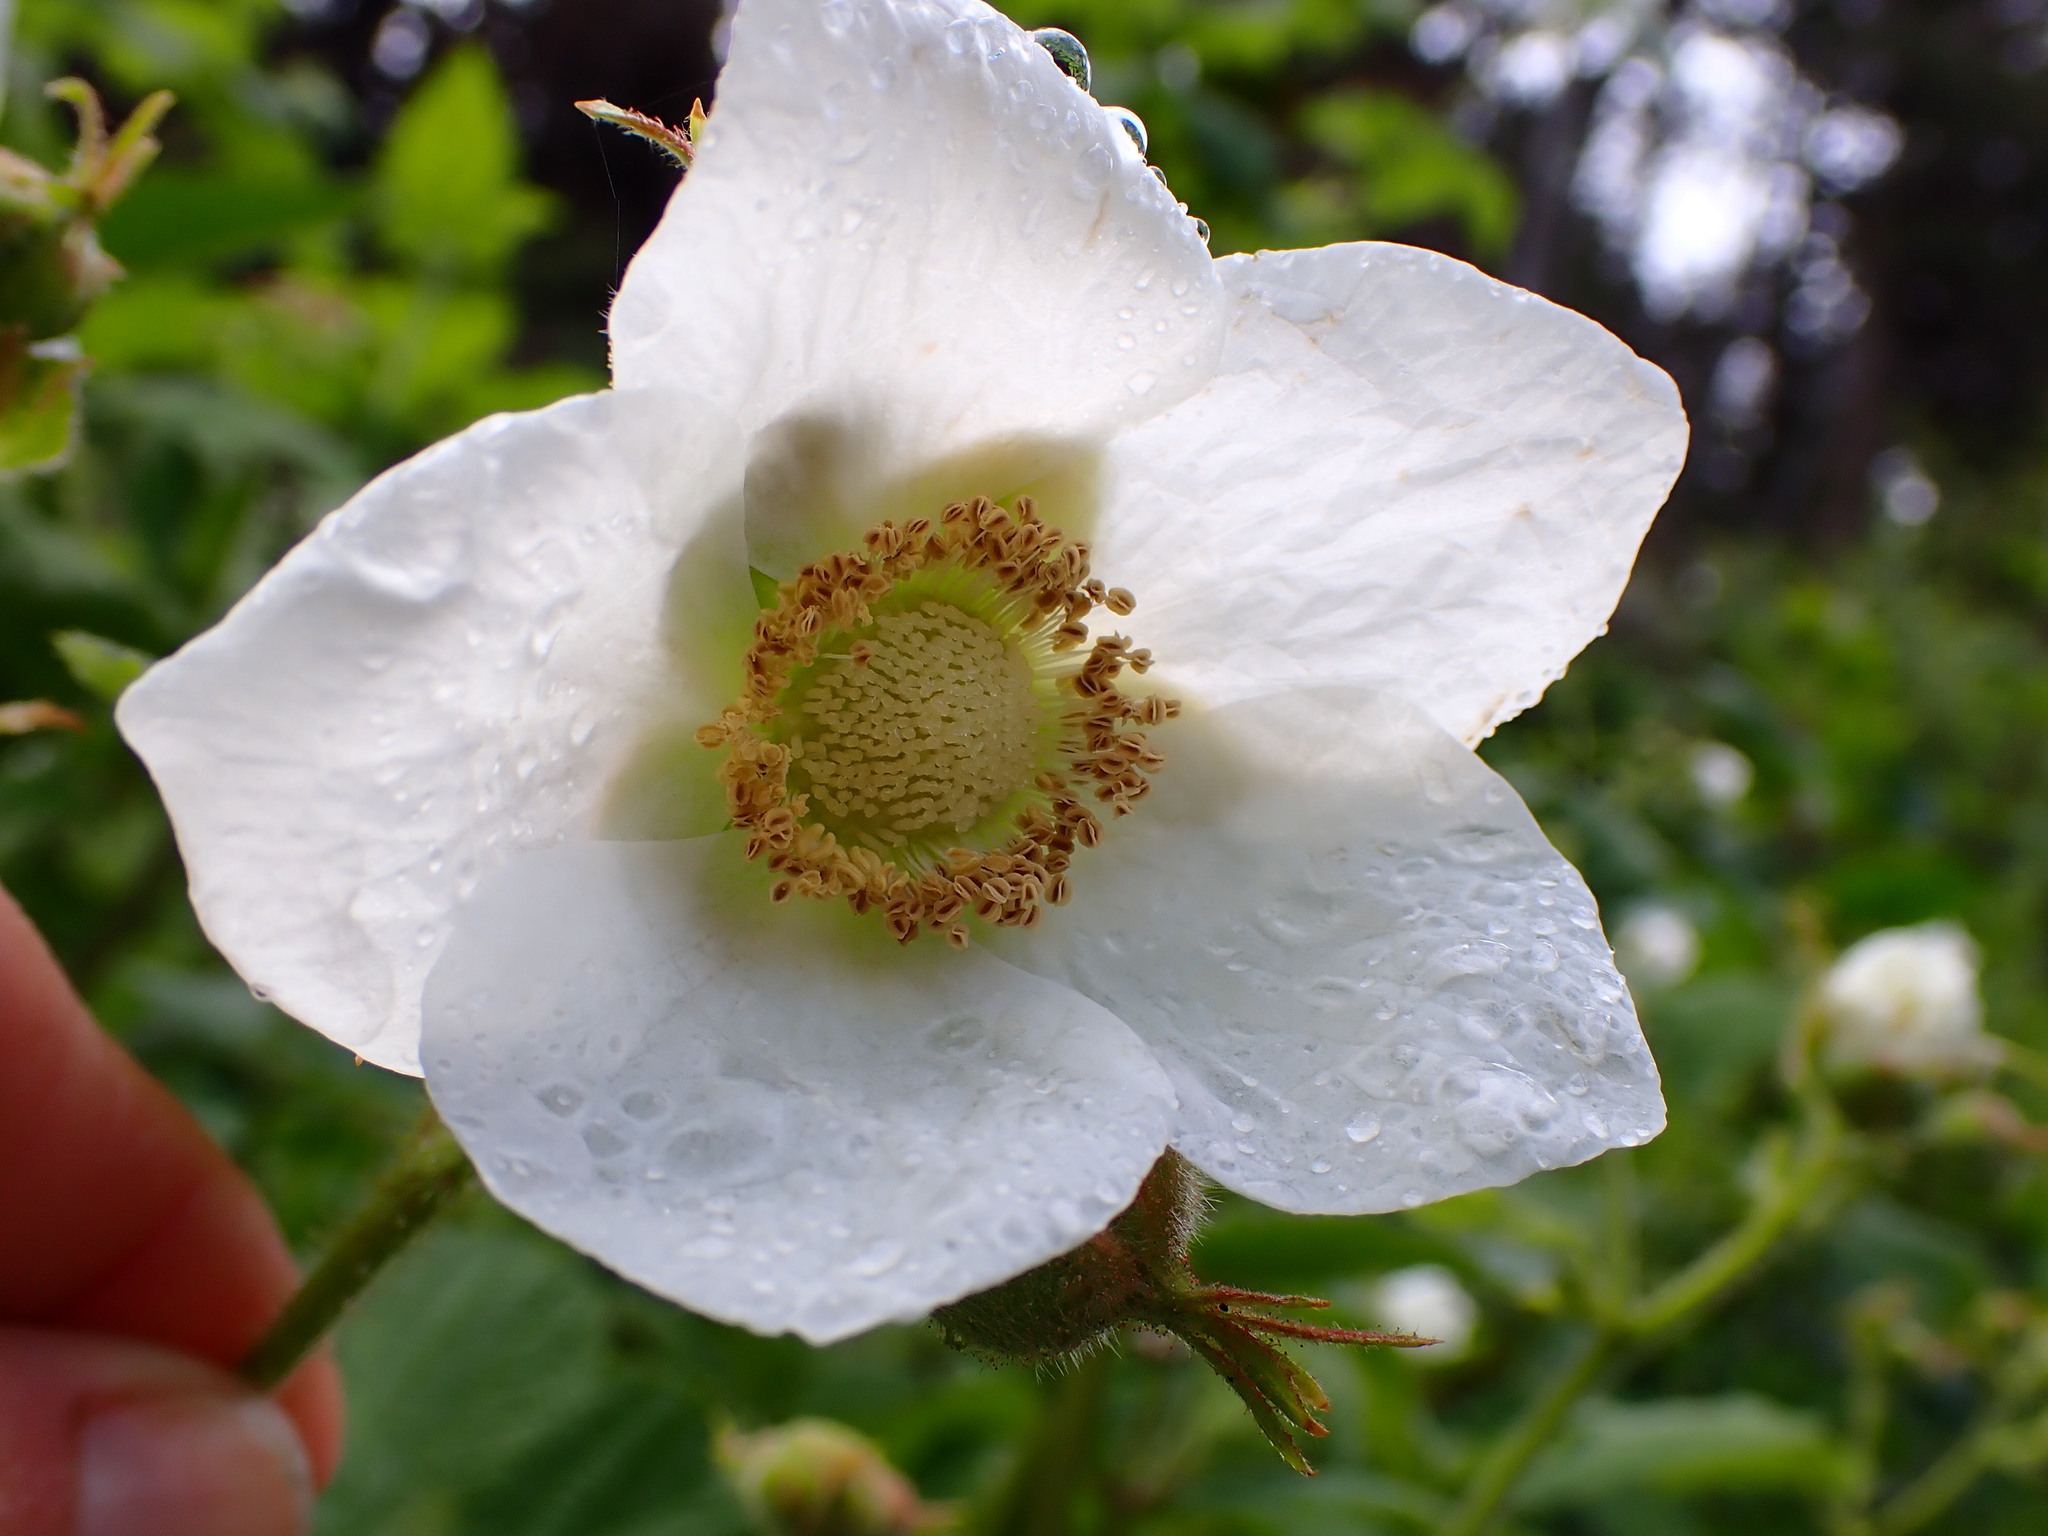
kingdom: Plantae
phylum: Tracheophyta
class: Magnoliopsida
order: Rosales
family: Rosaceae
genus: Rubus
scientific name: Rubus parviflorus
